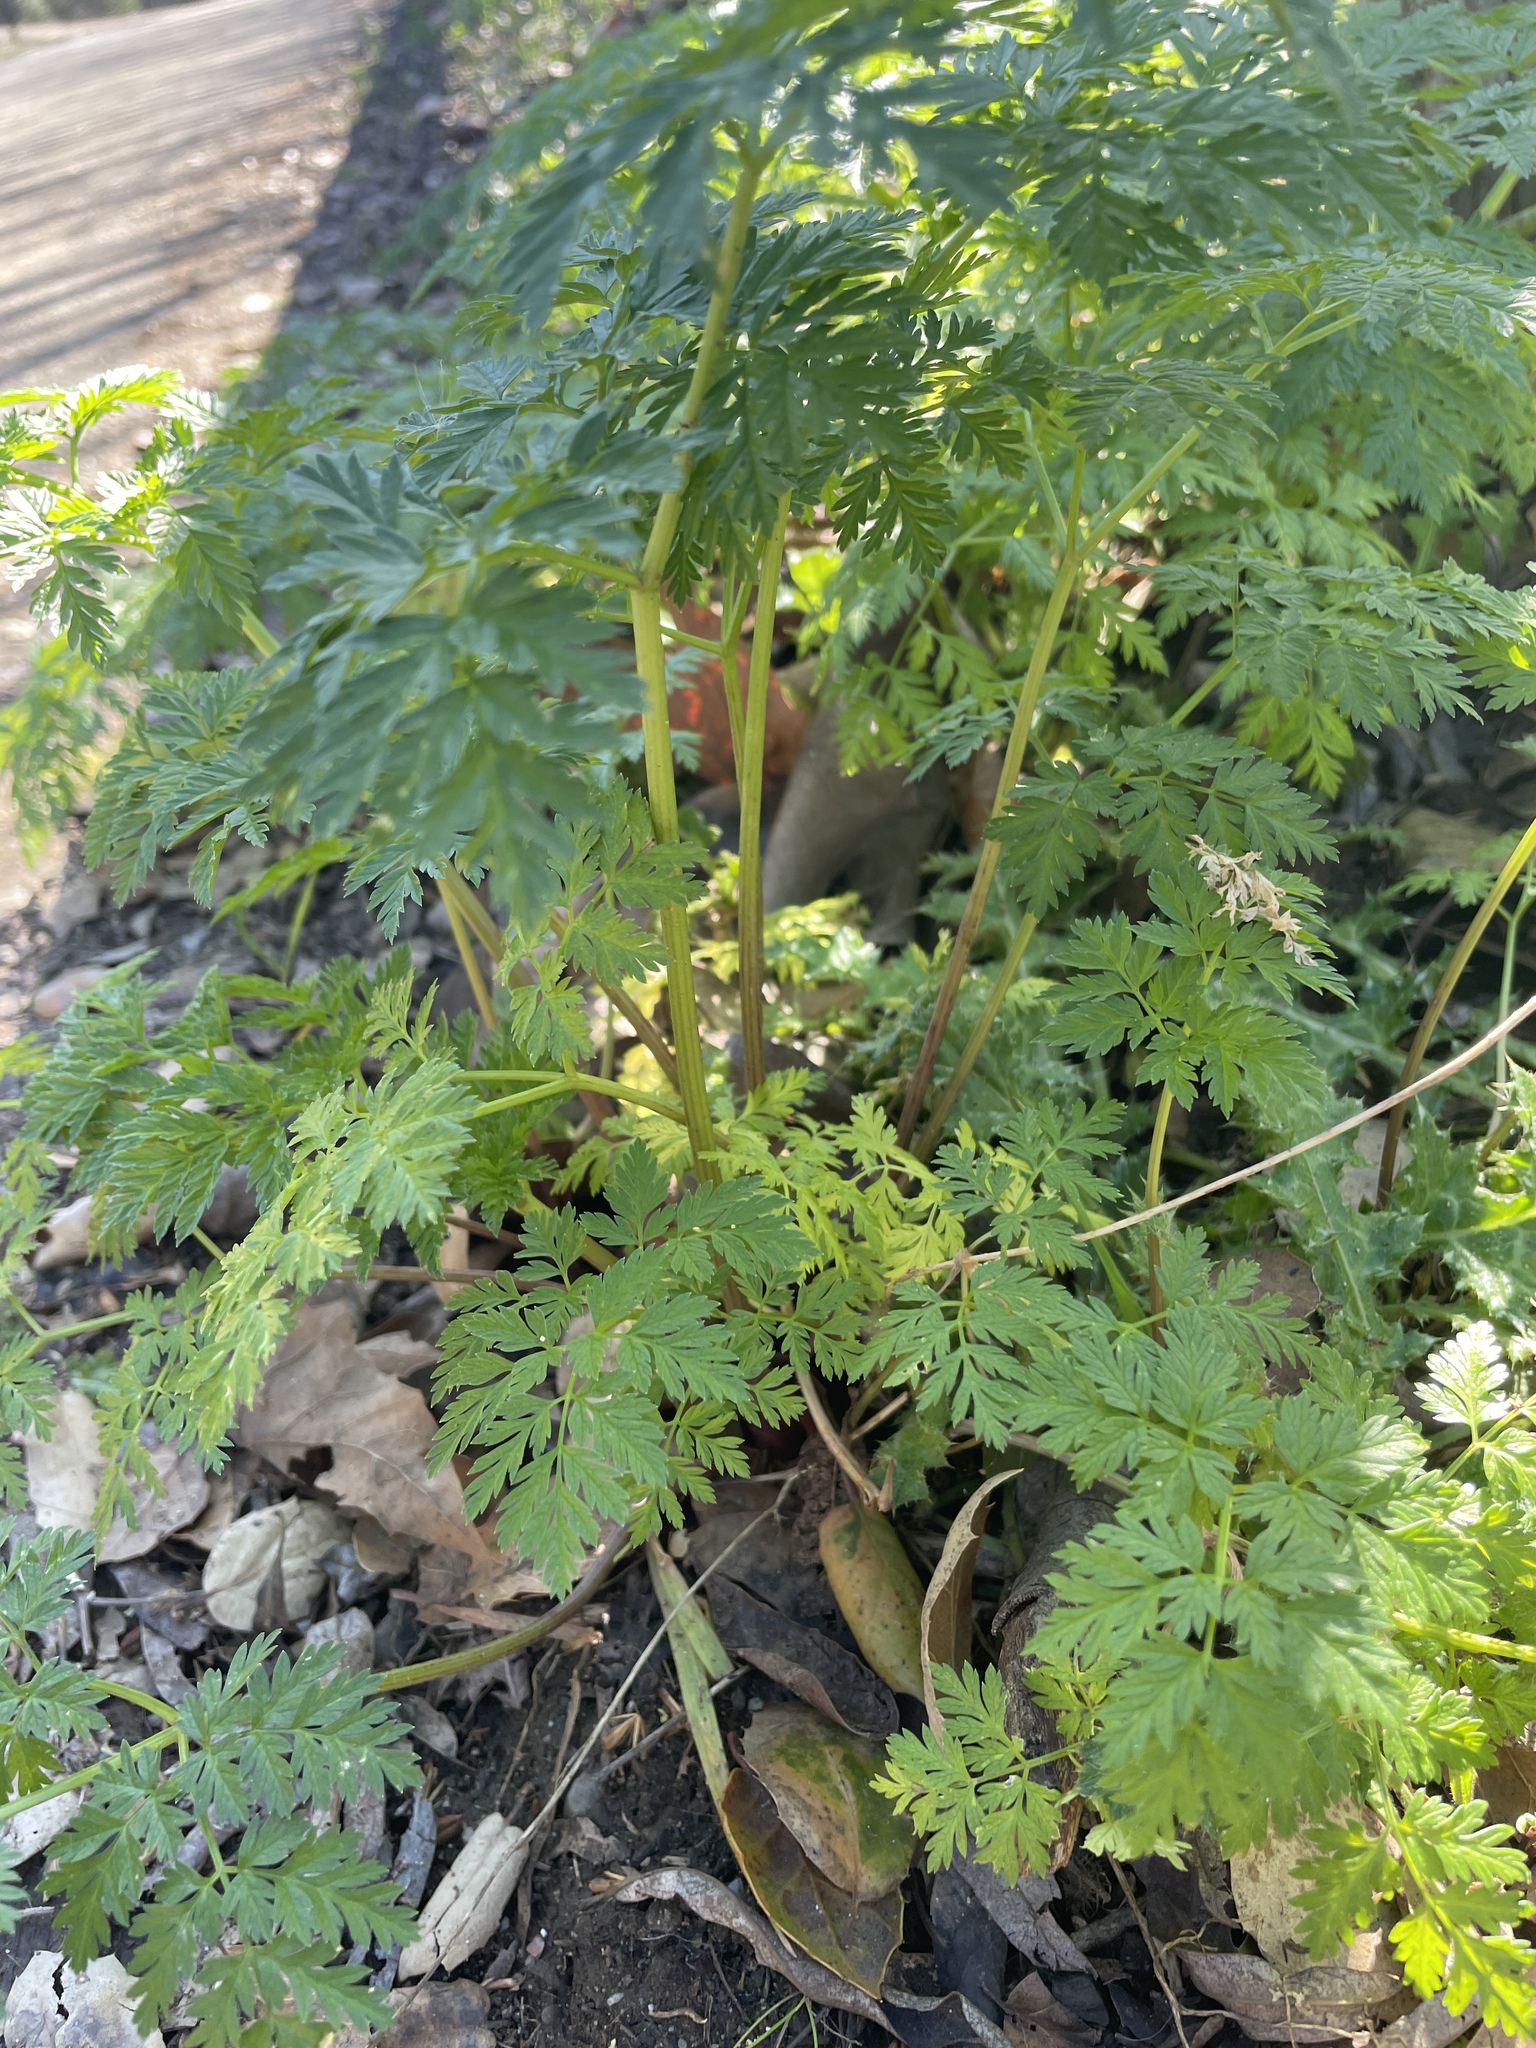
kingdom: Plantae
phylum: Tracheophyta
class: Magnoliopsida
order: Apiales
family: Apiaceae
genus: Conium
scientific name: Conium maculatum
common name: Hemlock
